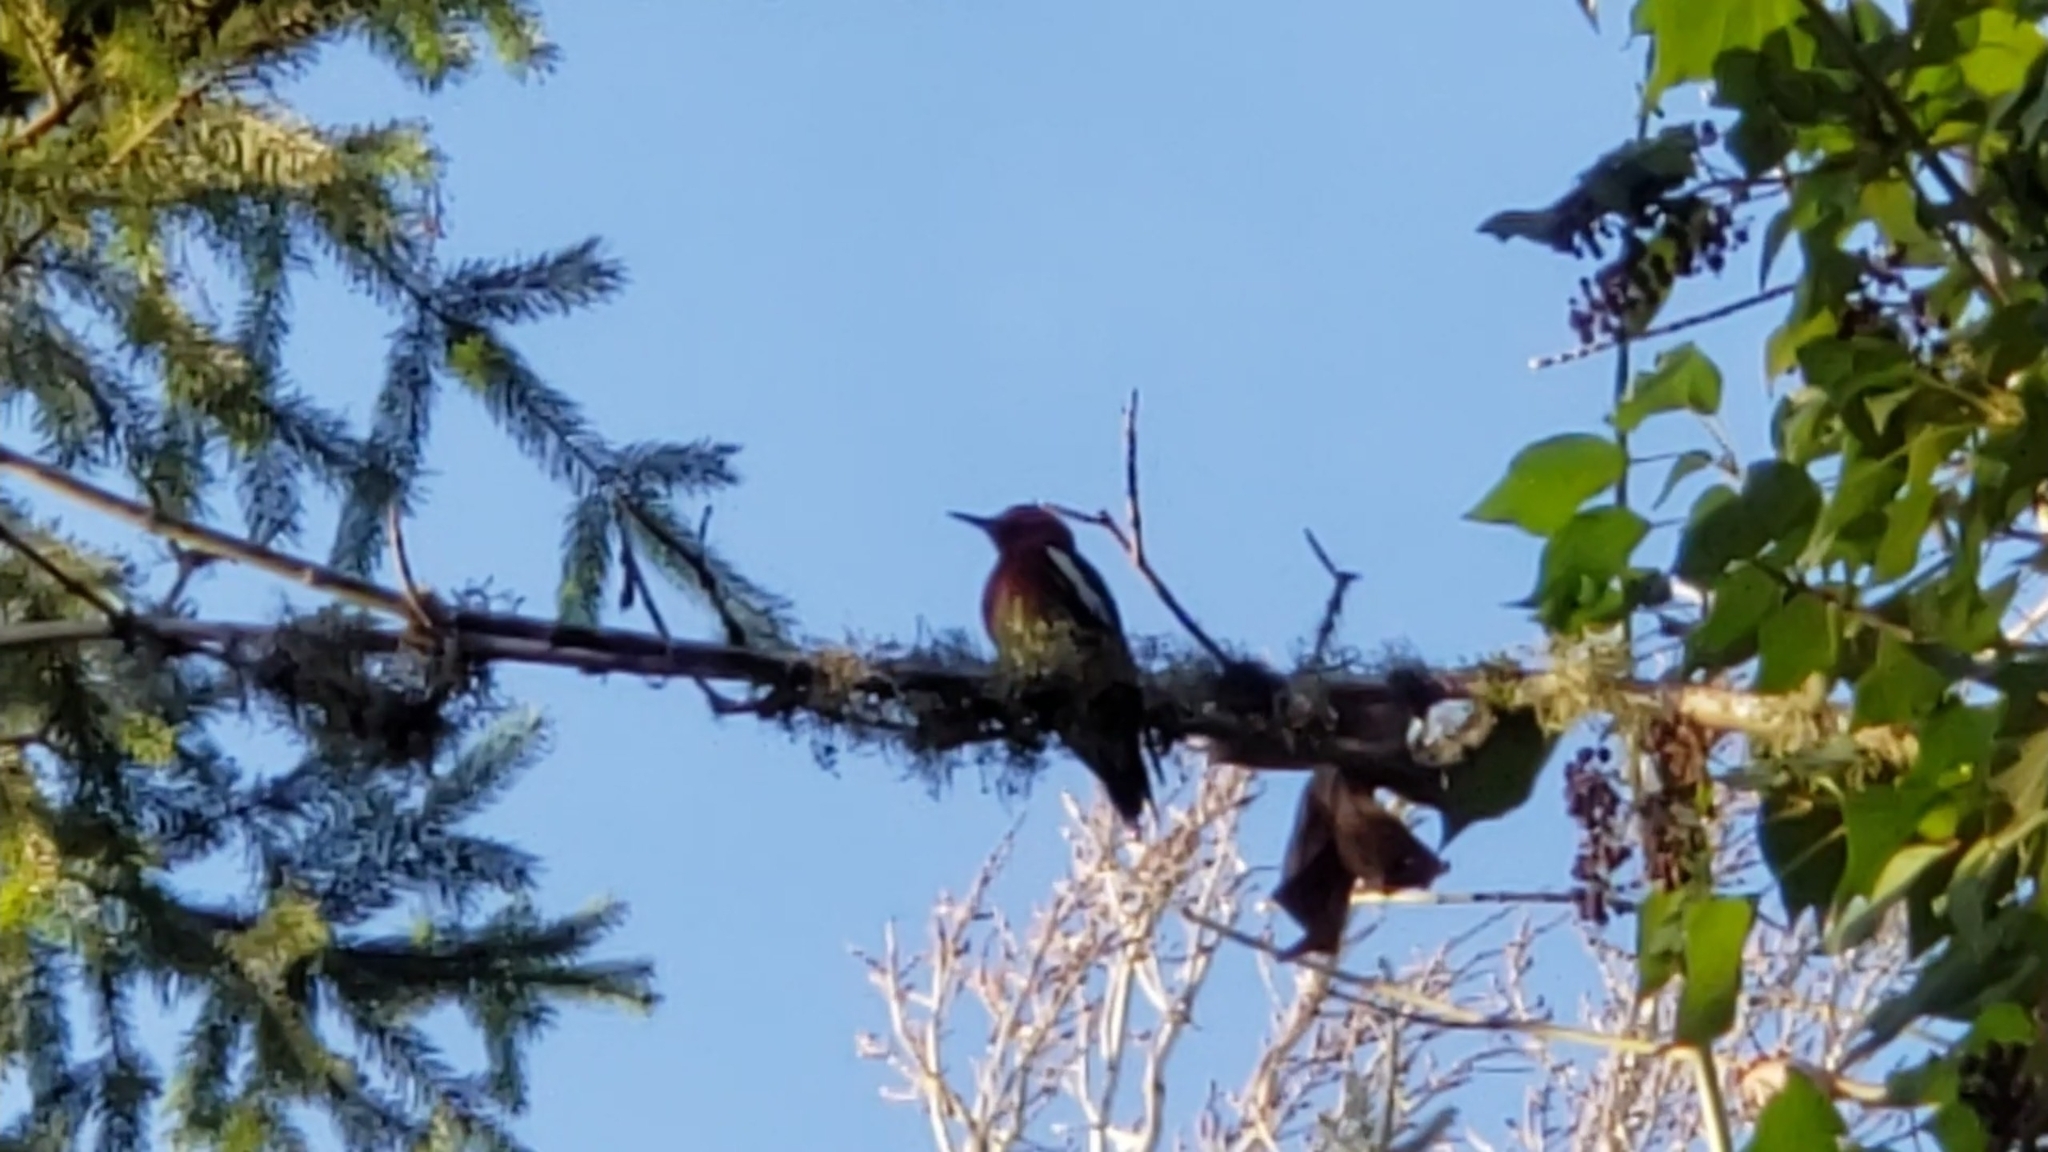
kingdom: Animalia
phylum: Chordata
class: Aves
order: Piciformes
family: Picidae
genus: Sphyrapicus
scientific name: Sphyrapicus ruber
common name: Red-breasted sapsucker
